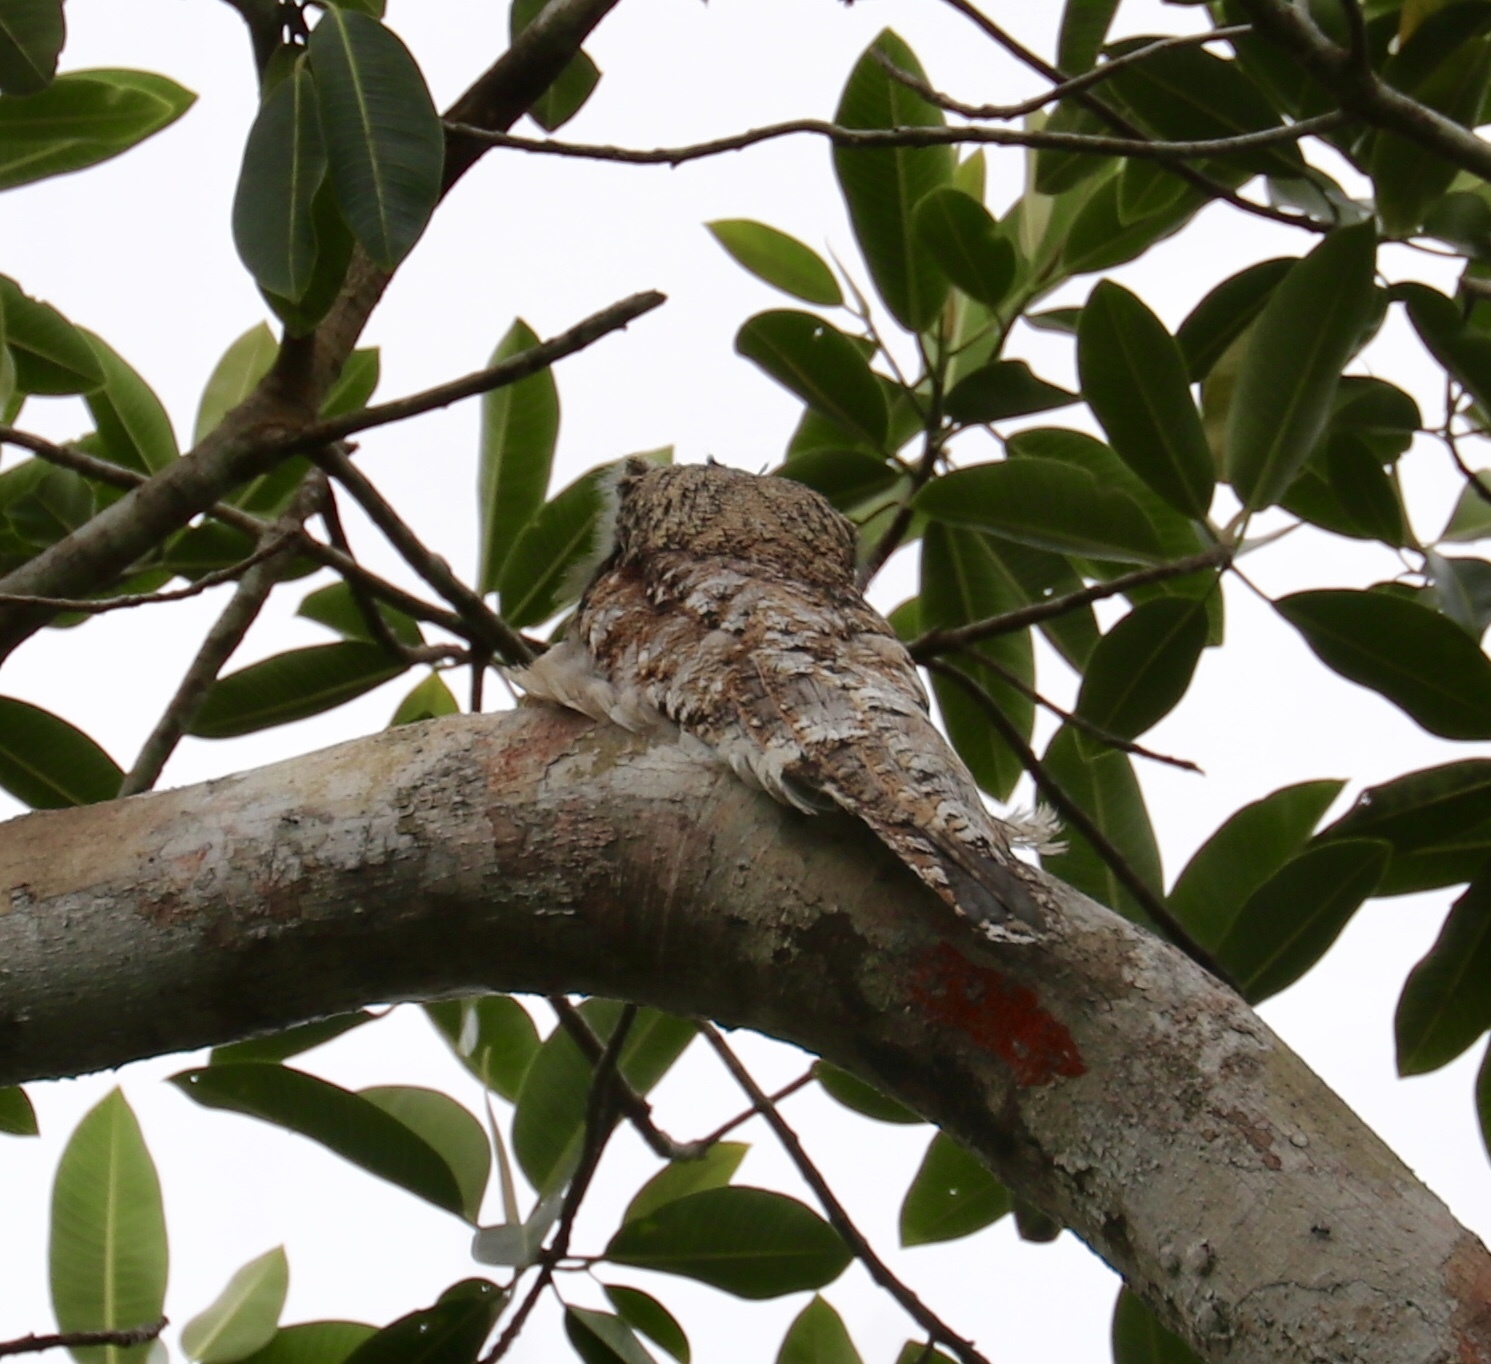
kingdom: Animalia
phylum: Chordata
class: Aves
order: Nyctibiiformes
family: Nyctibiidae
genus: Nyctibius
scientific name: Nyctibius grandis
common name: Great potoo
